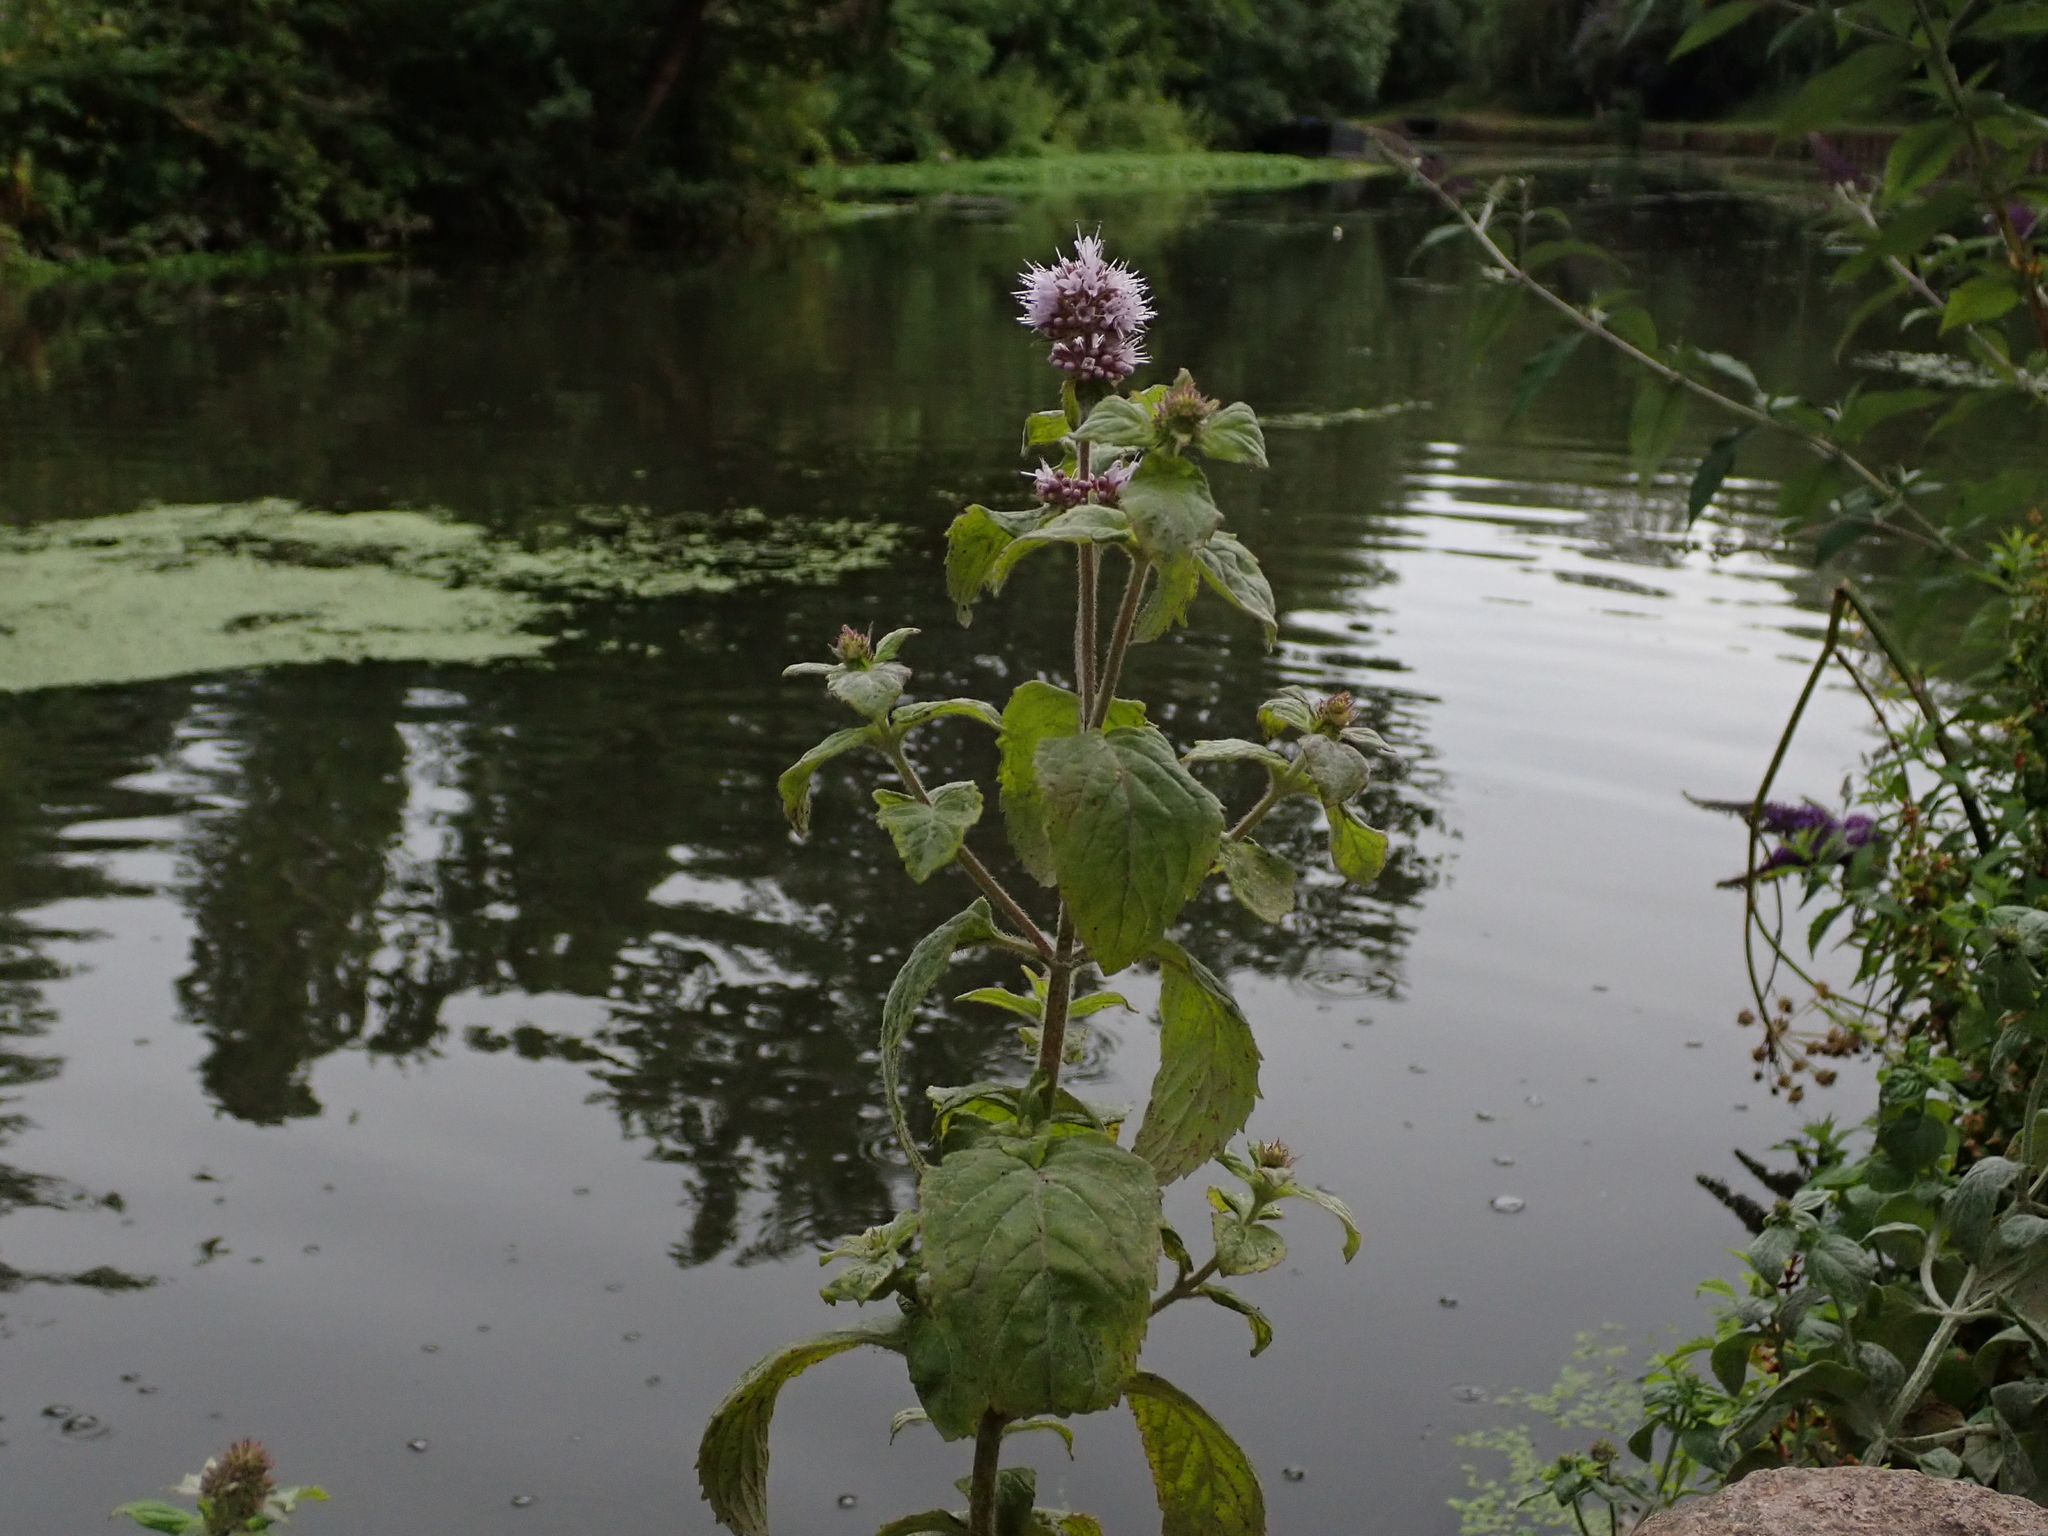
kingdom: Plantae
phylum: Tracheophyta
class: Magnoliopsida
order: Lamiales
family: Lamiaceae
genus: Mentha
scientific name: Mentha aquatica
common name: Water mint
